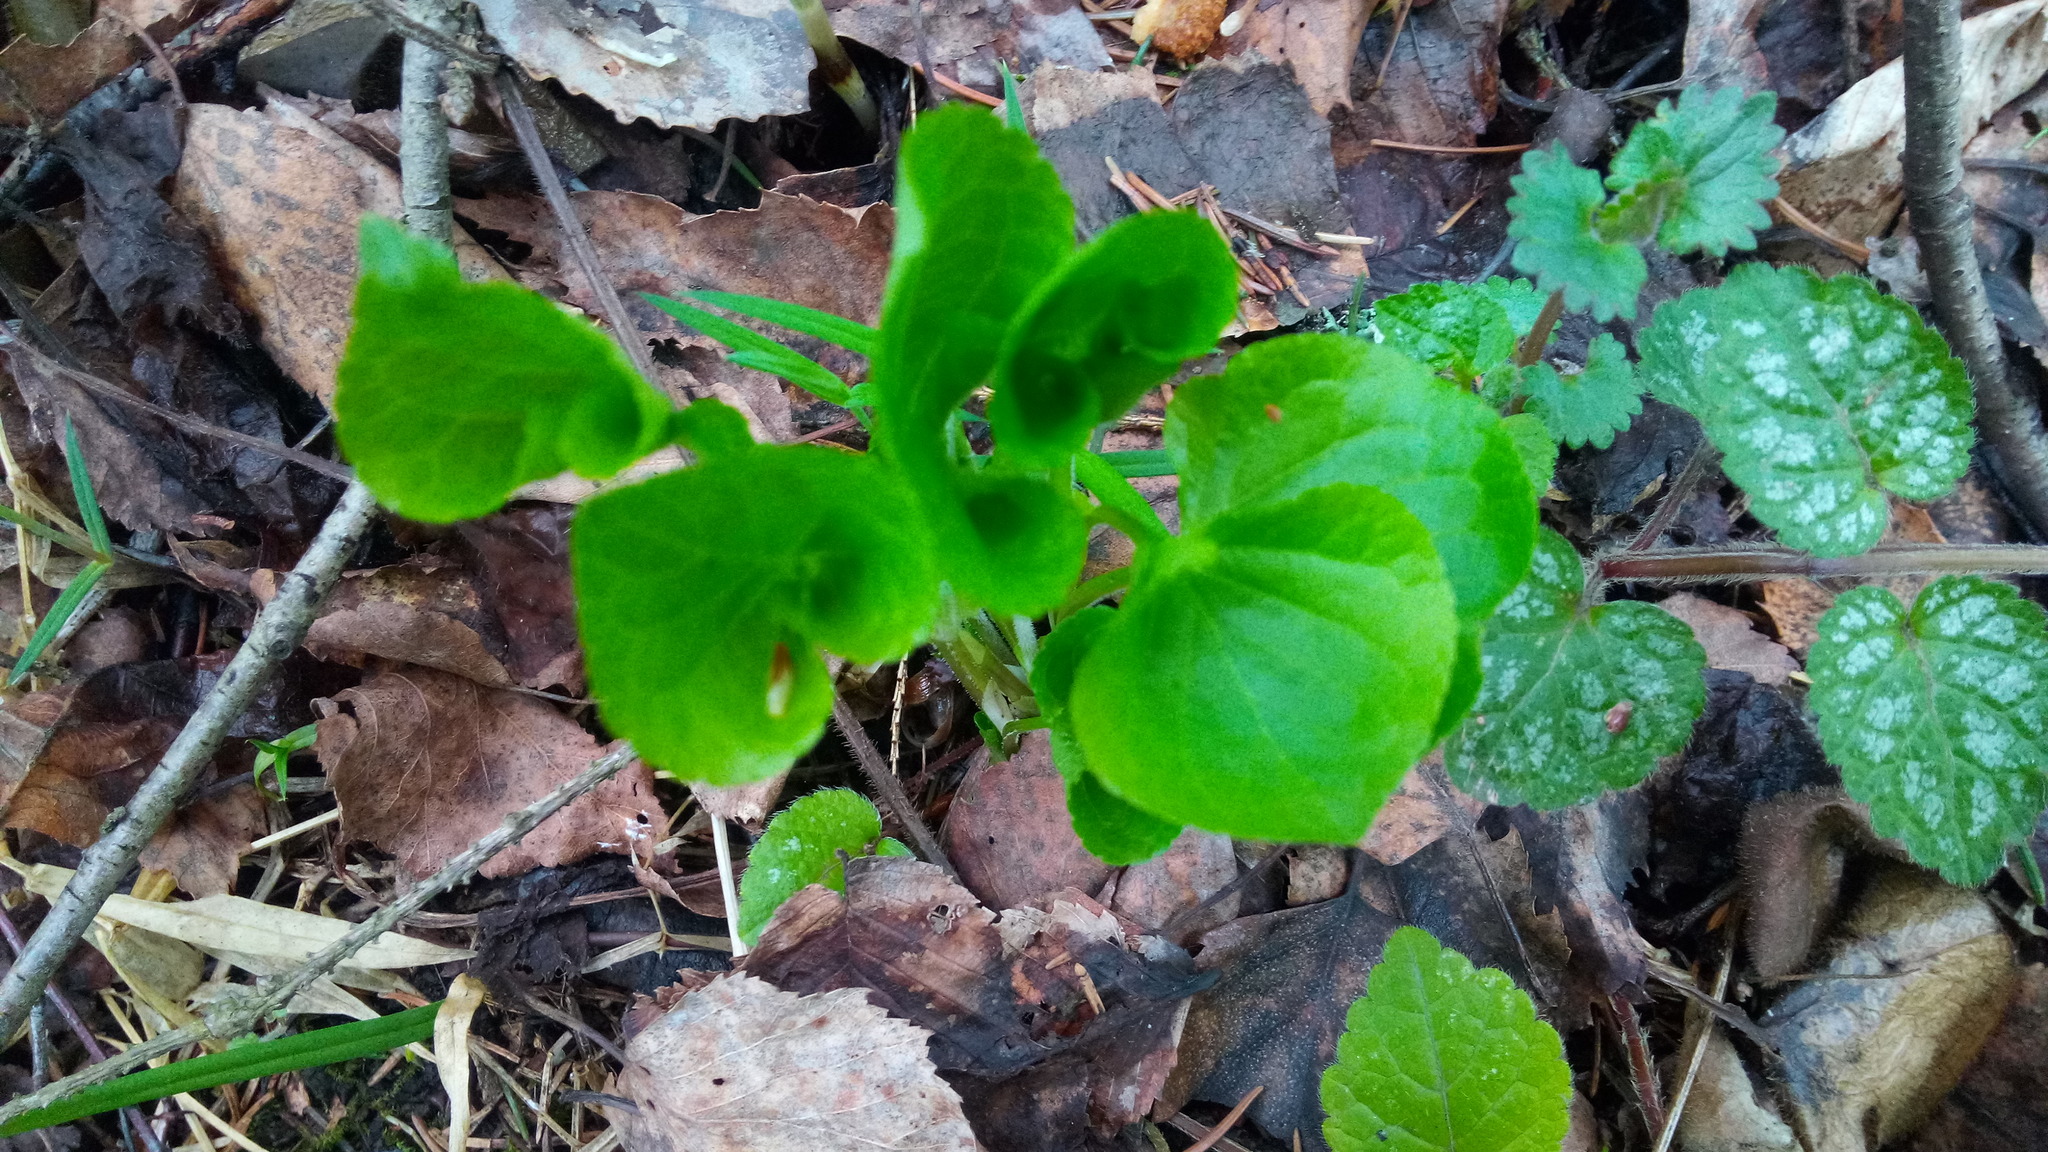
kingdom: Plantae
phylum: Tracheophyta
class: Magnoliopsida
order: Lamiales
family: Lamiaceae
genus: Lamium
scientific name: Lamium maculatum
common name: Spotted dead-nettle
